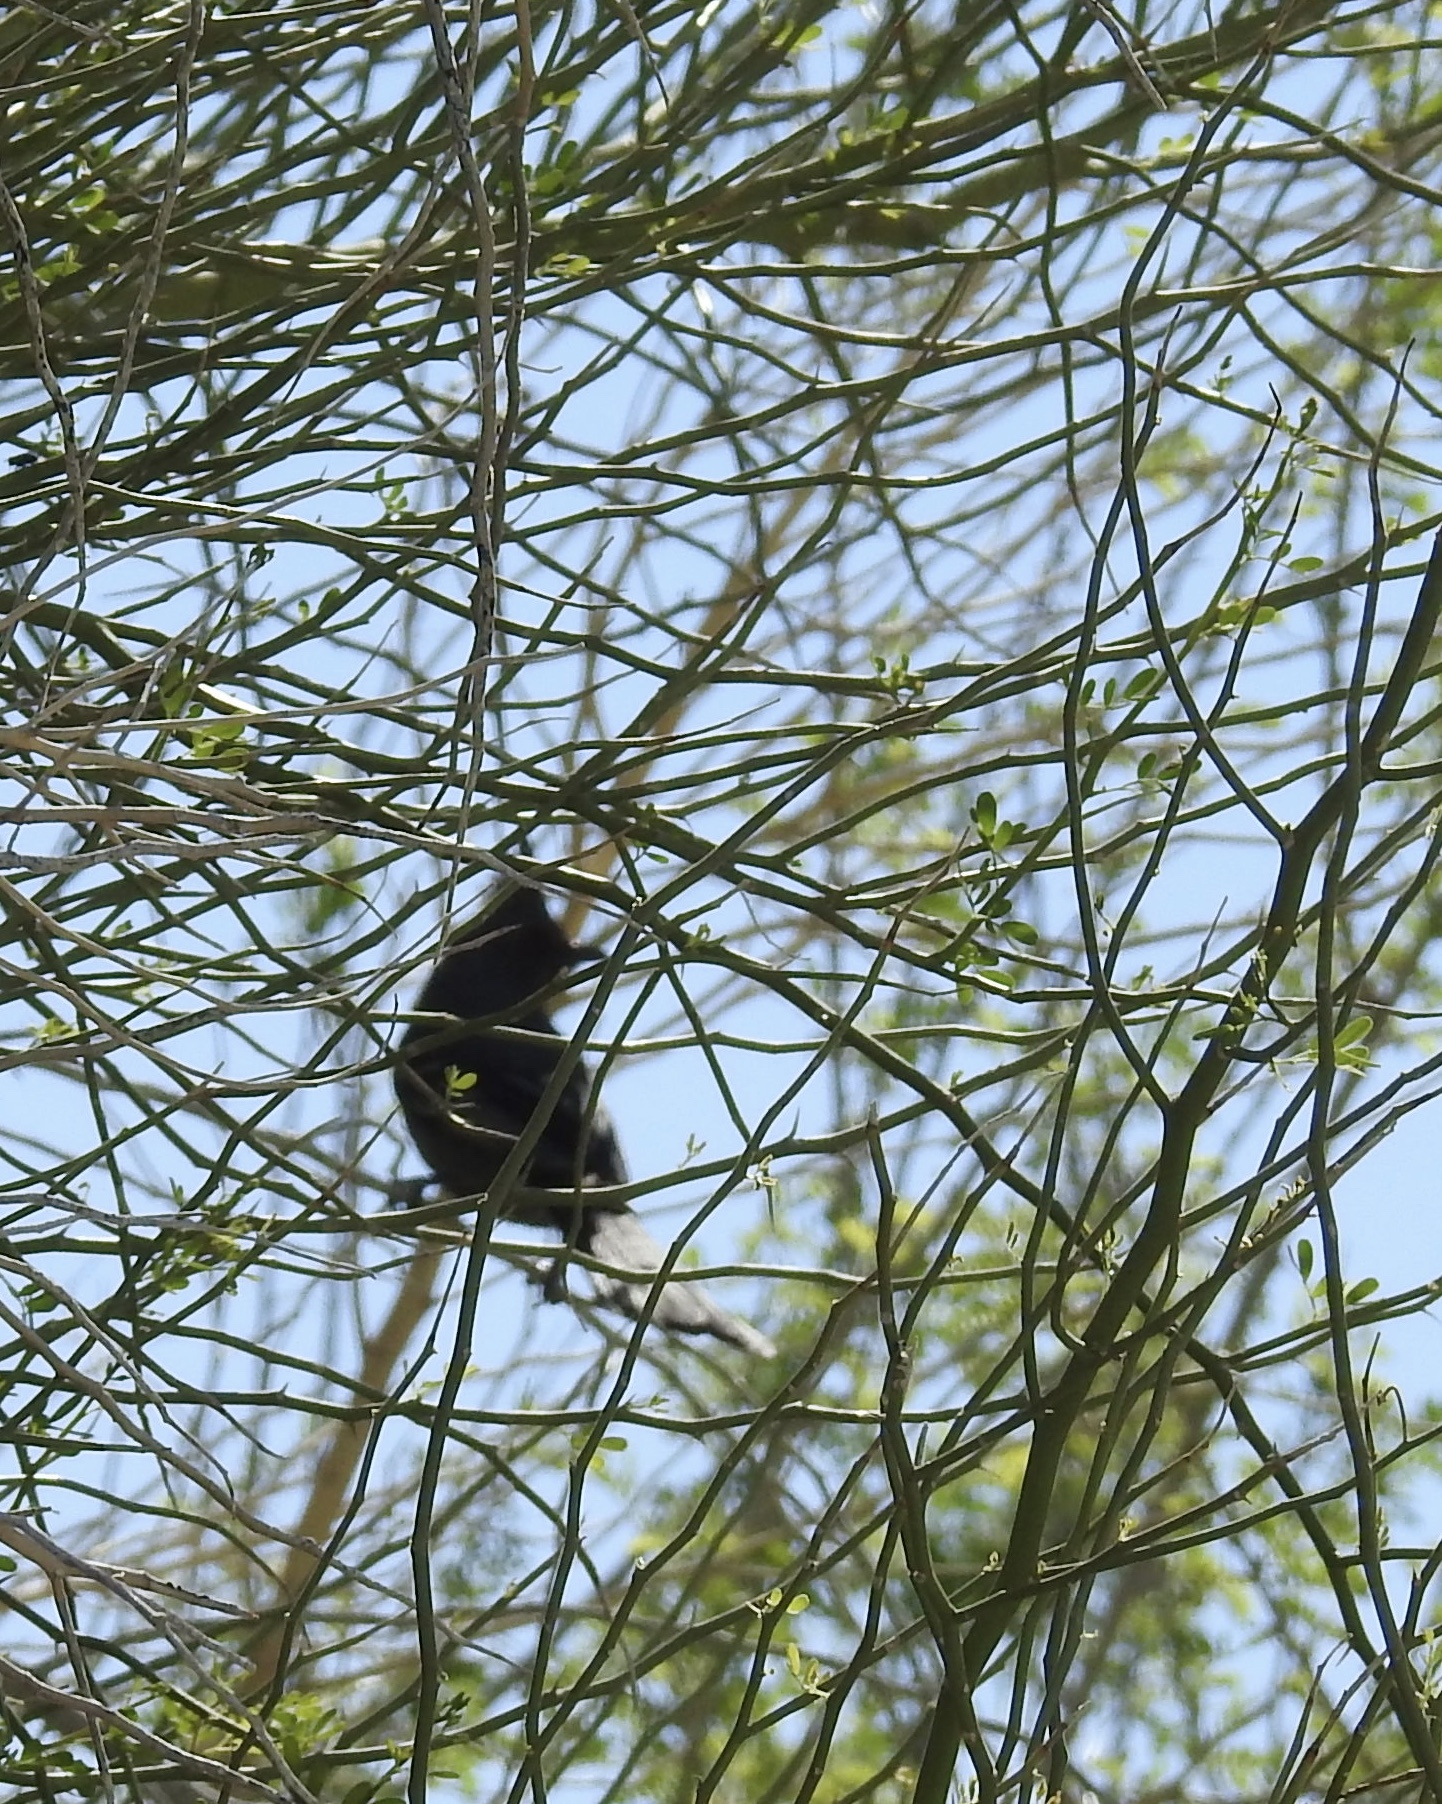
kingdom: Animalia
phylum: Chordata
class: Aves
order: Passeriformes
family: Ptilogonatidae
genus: Phainopepla
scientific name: Phainopepla nitens
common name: Phainopepla
